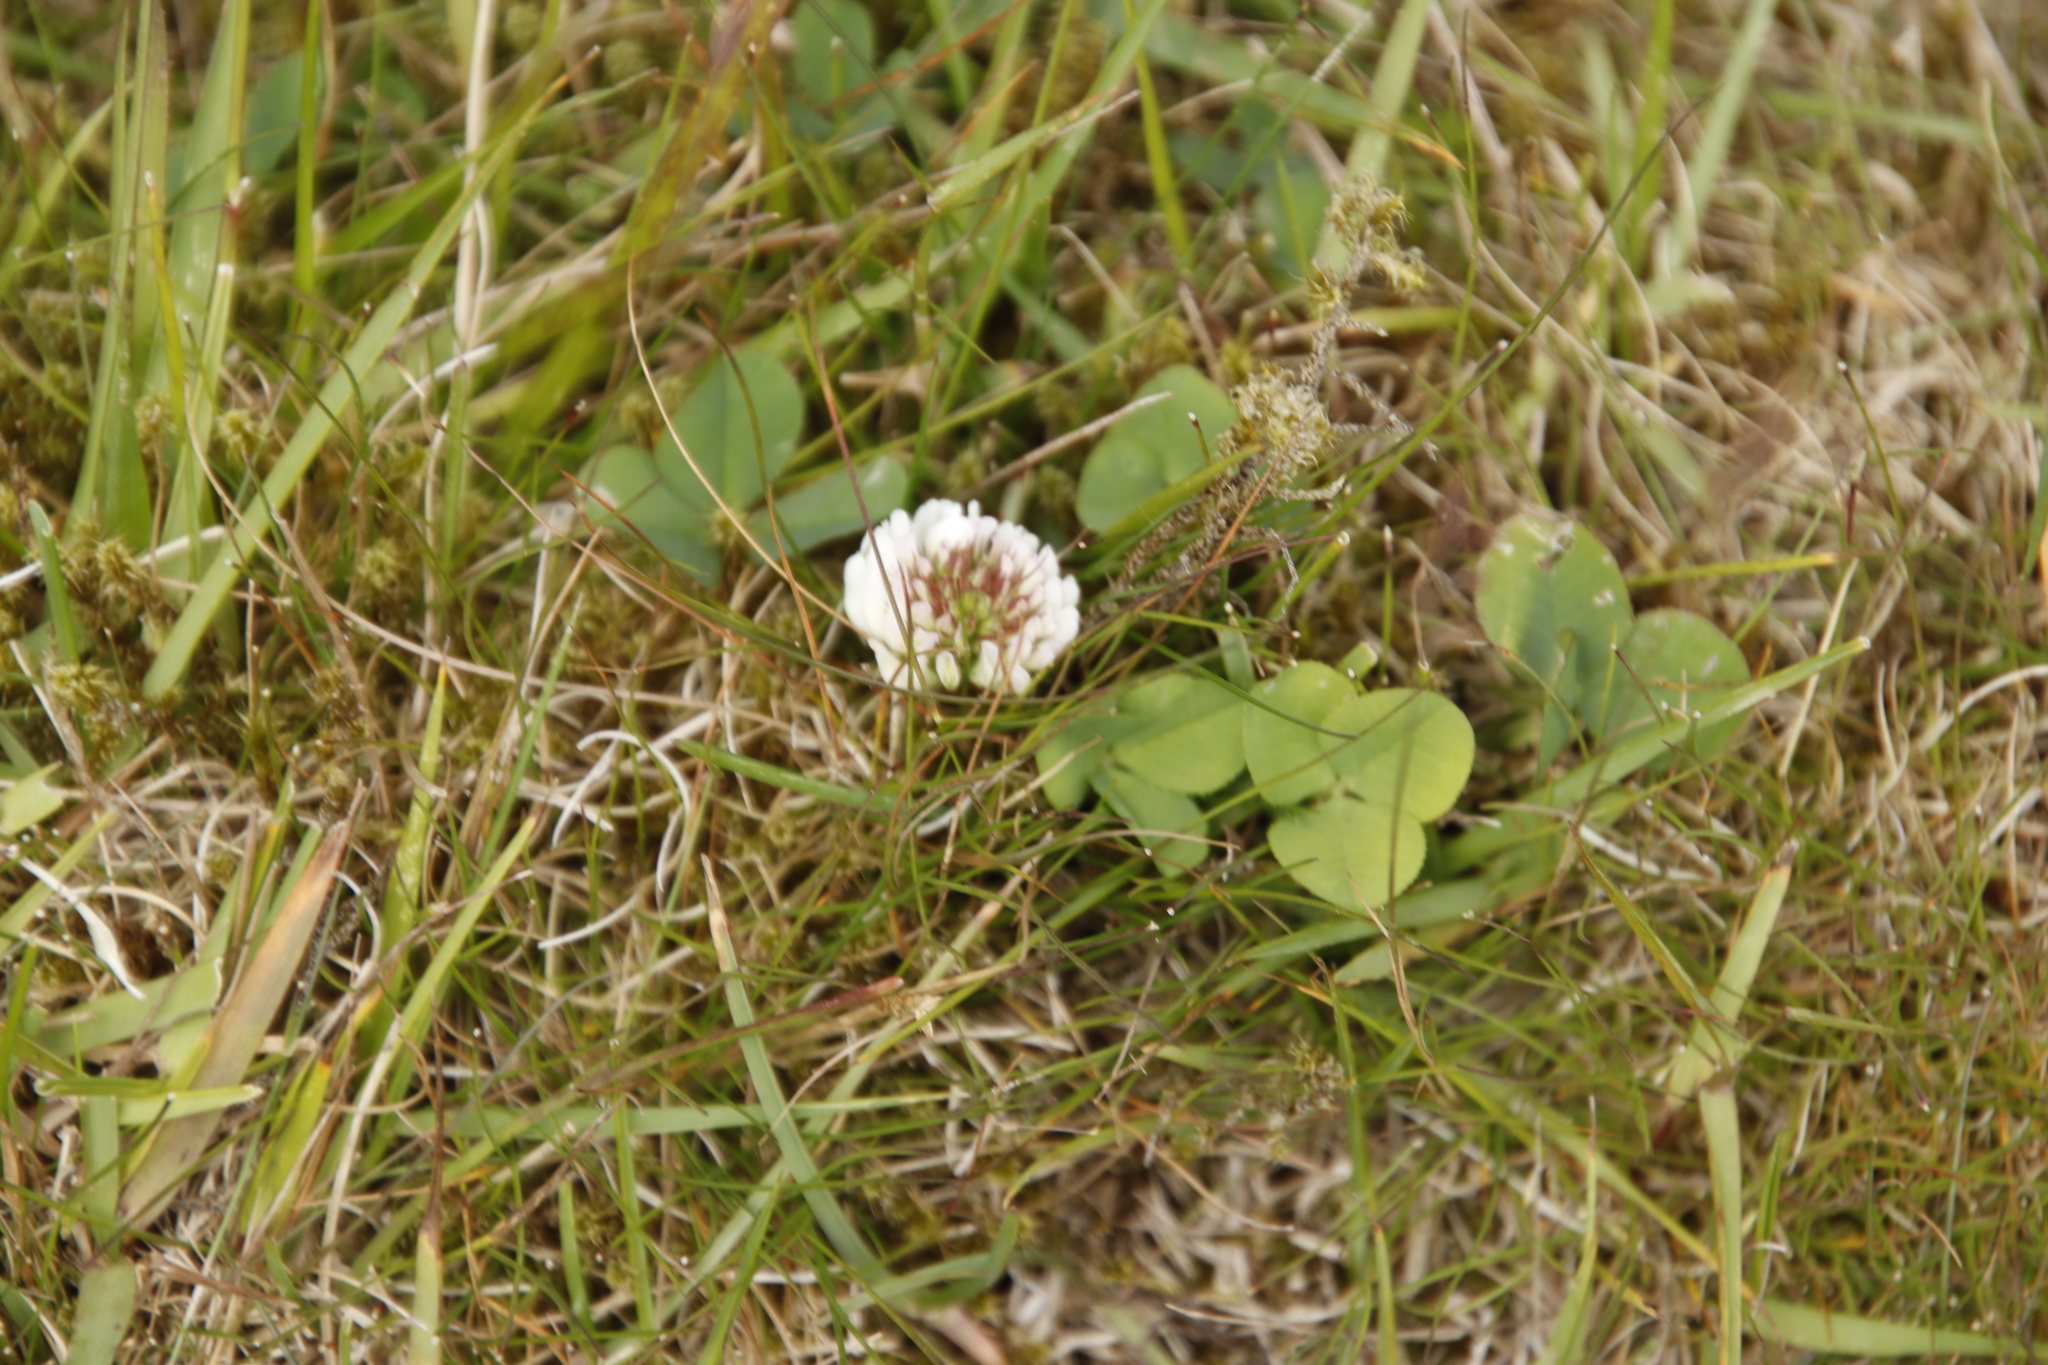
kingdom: Plantae
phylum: Tracheophyta
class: Magnoliopsida
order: Fabales
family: Fabaceae
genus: Trifolium
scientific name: Trifolium repens
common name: White clover
